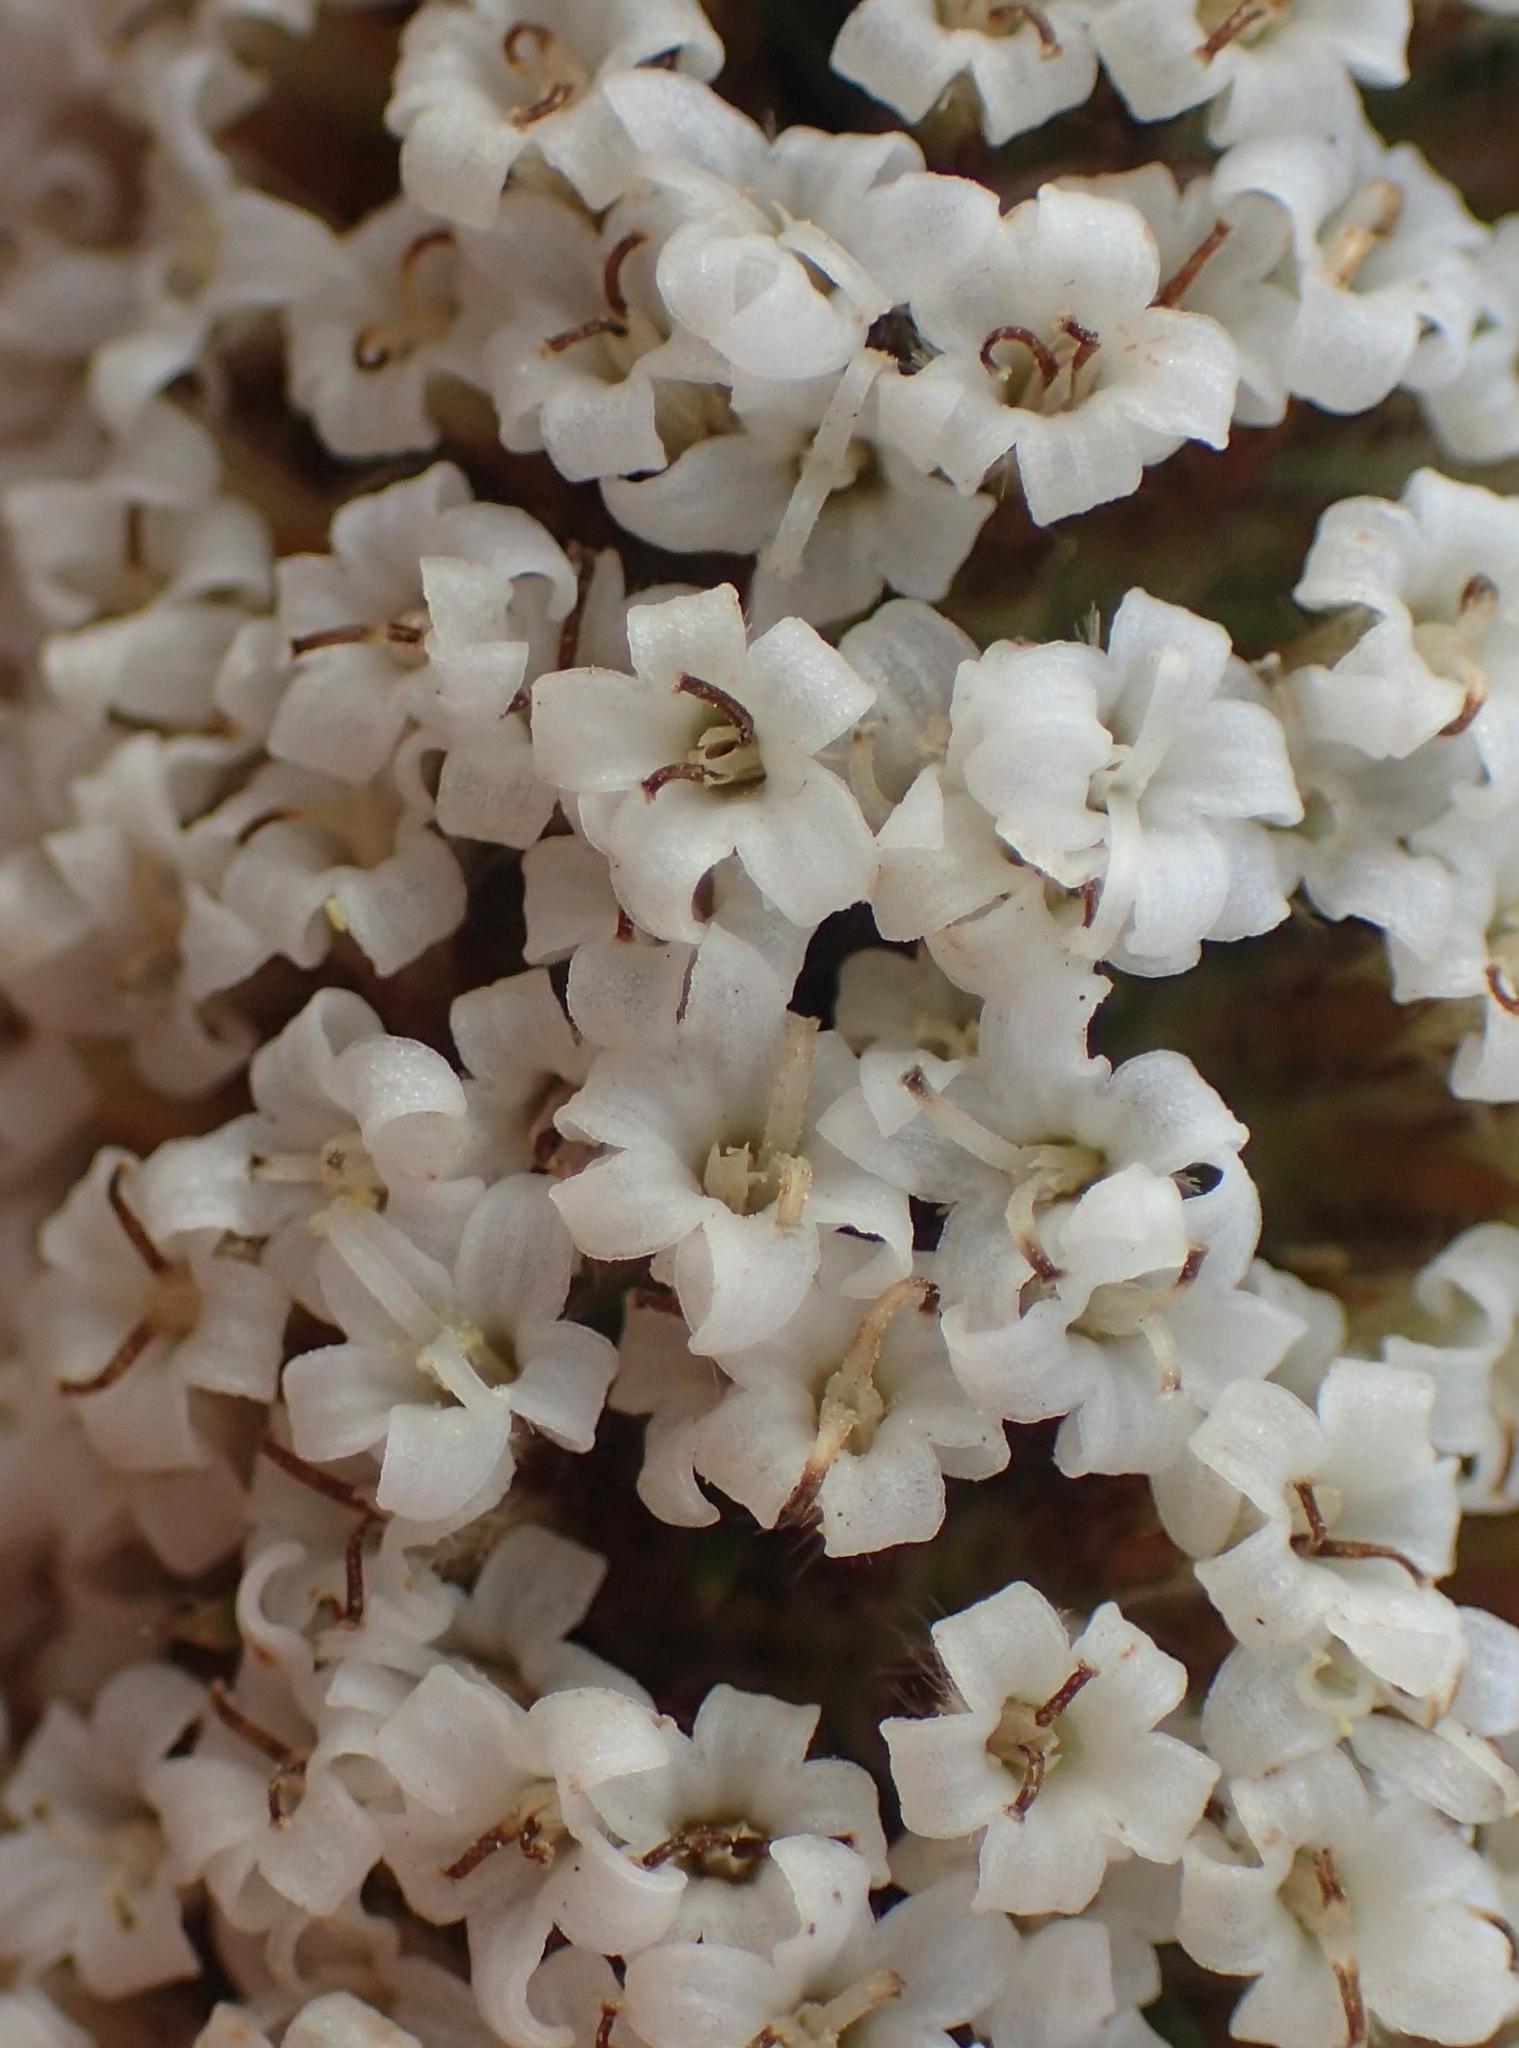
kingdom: Plantae
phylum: Tracheophyta
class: Magnoliopsida
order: Asterales
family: Asteraceae
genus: Stoebe
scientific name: Stoebe alopecuroides
